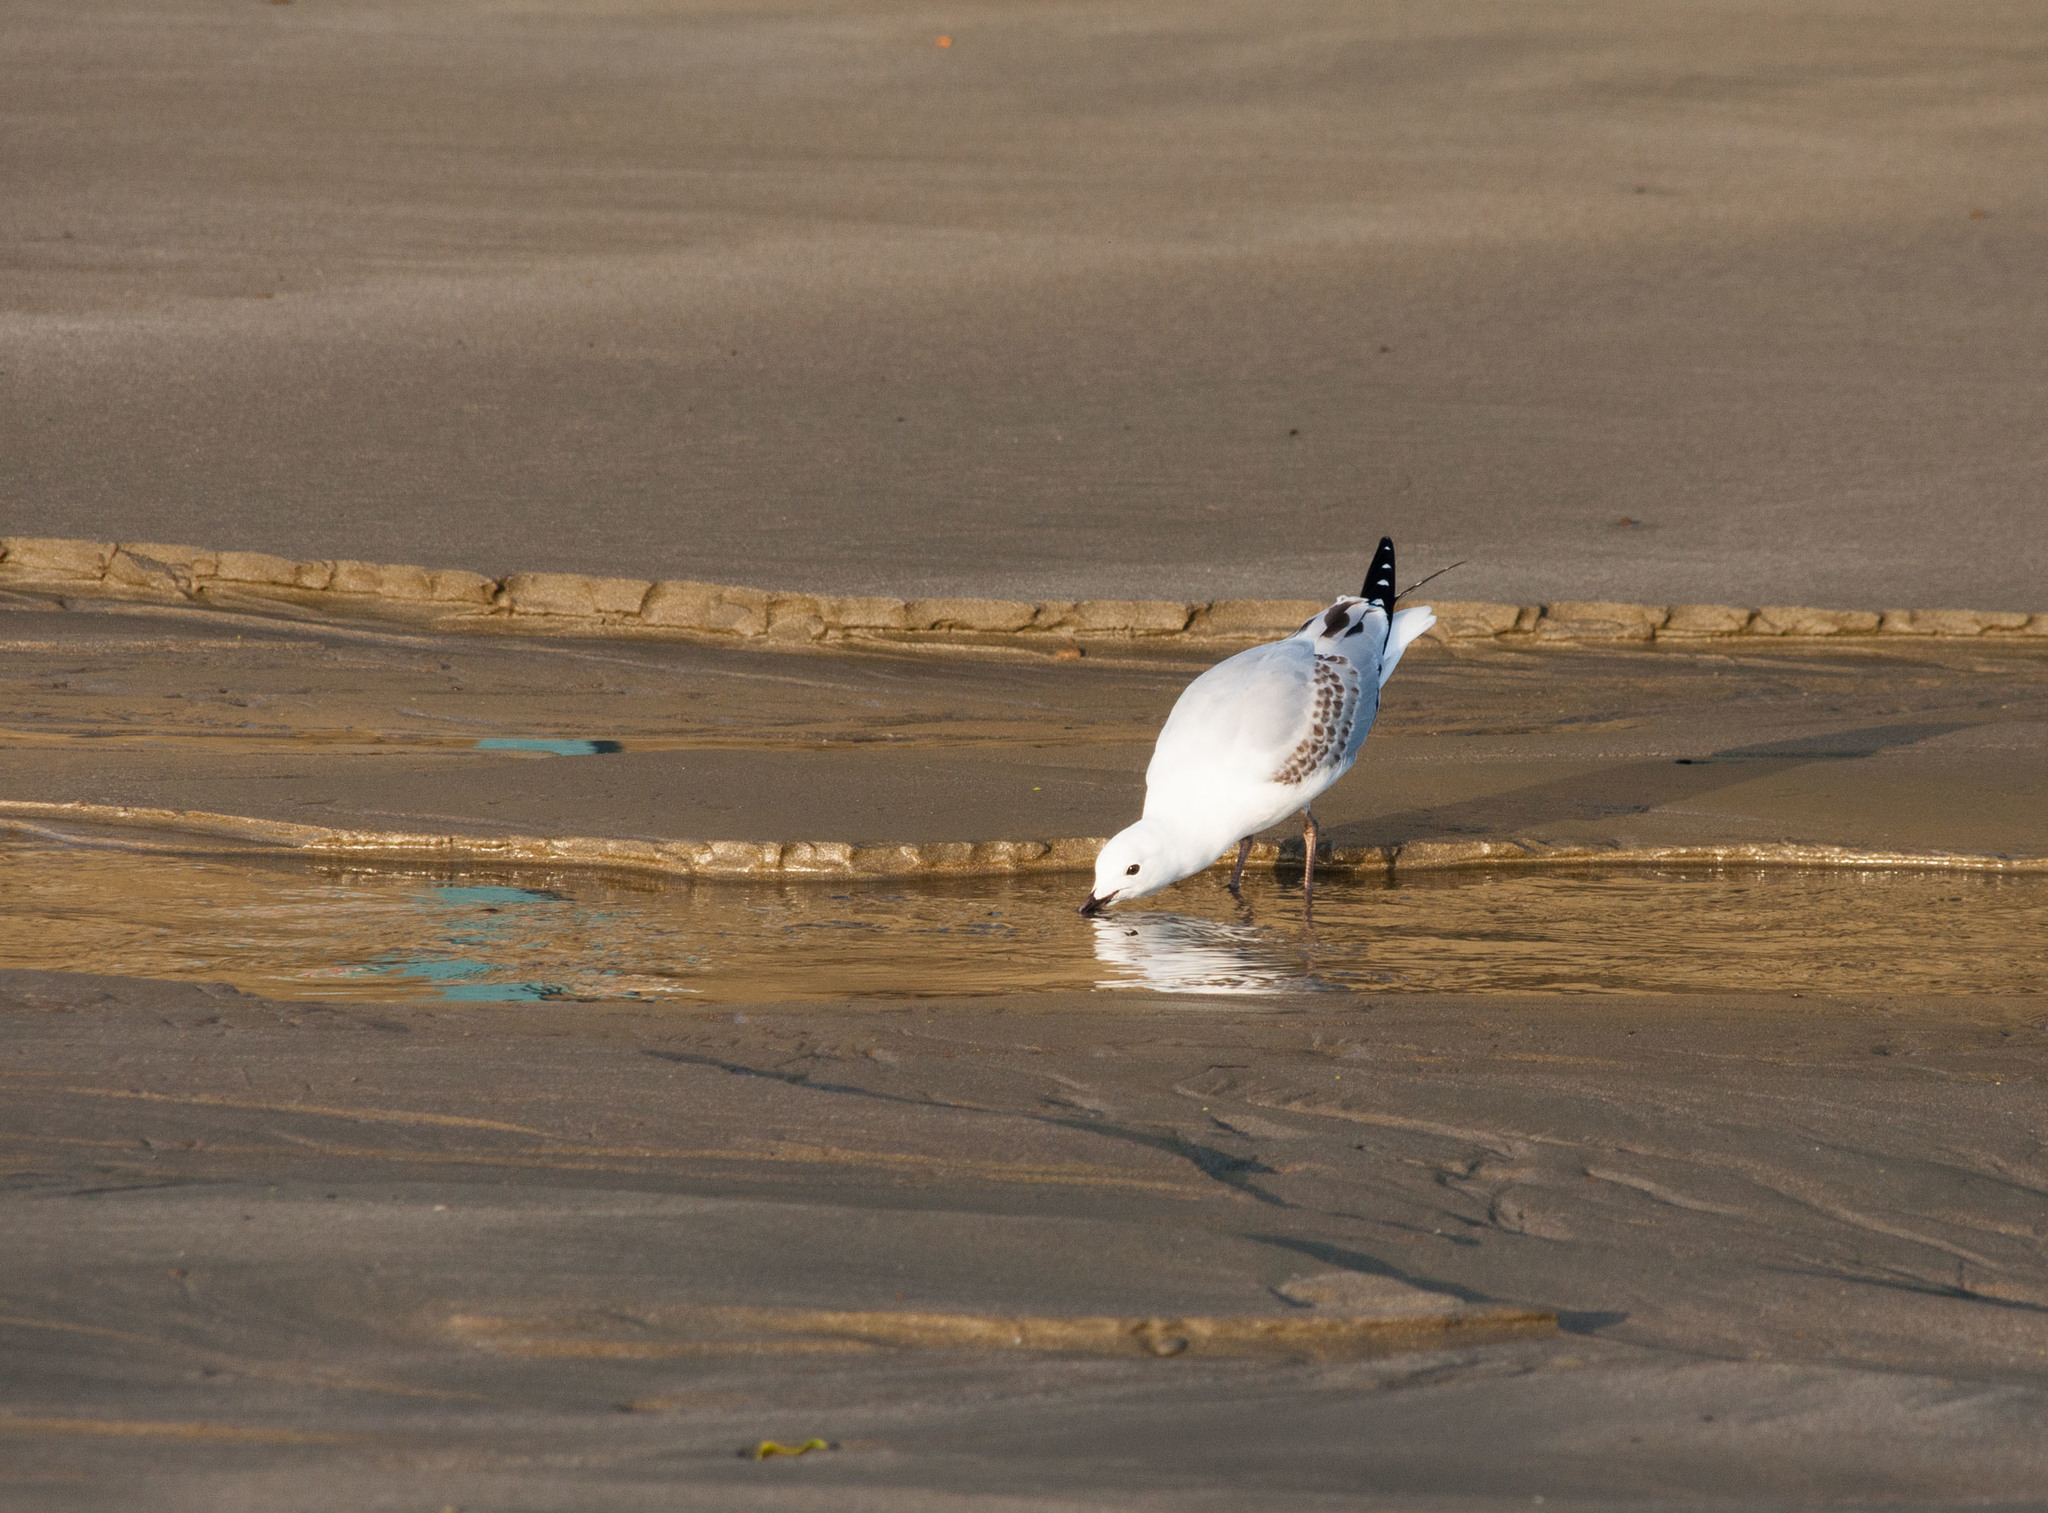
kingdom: Animalia
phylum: Chordata
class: Aves
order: Charadriiformes
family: Laridae
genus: Chroicocephalus
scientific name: Chroicocephalus bulleri
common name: Black-billed gull
